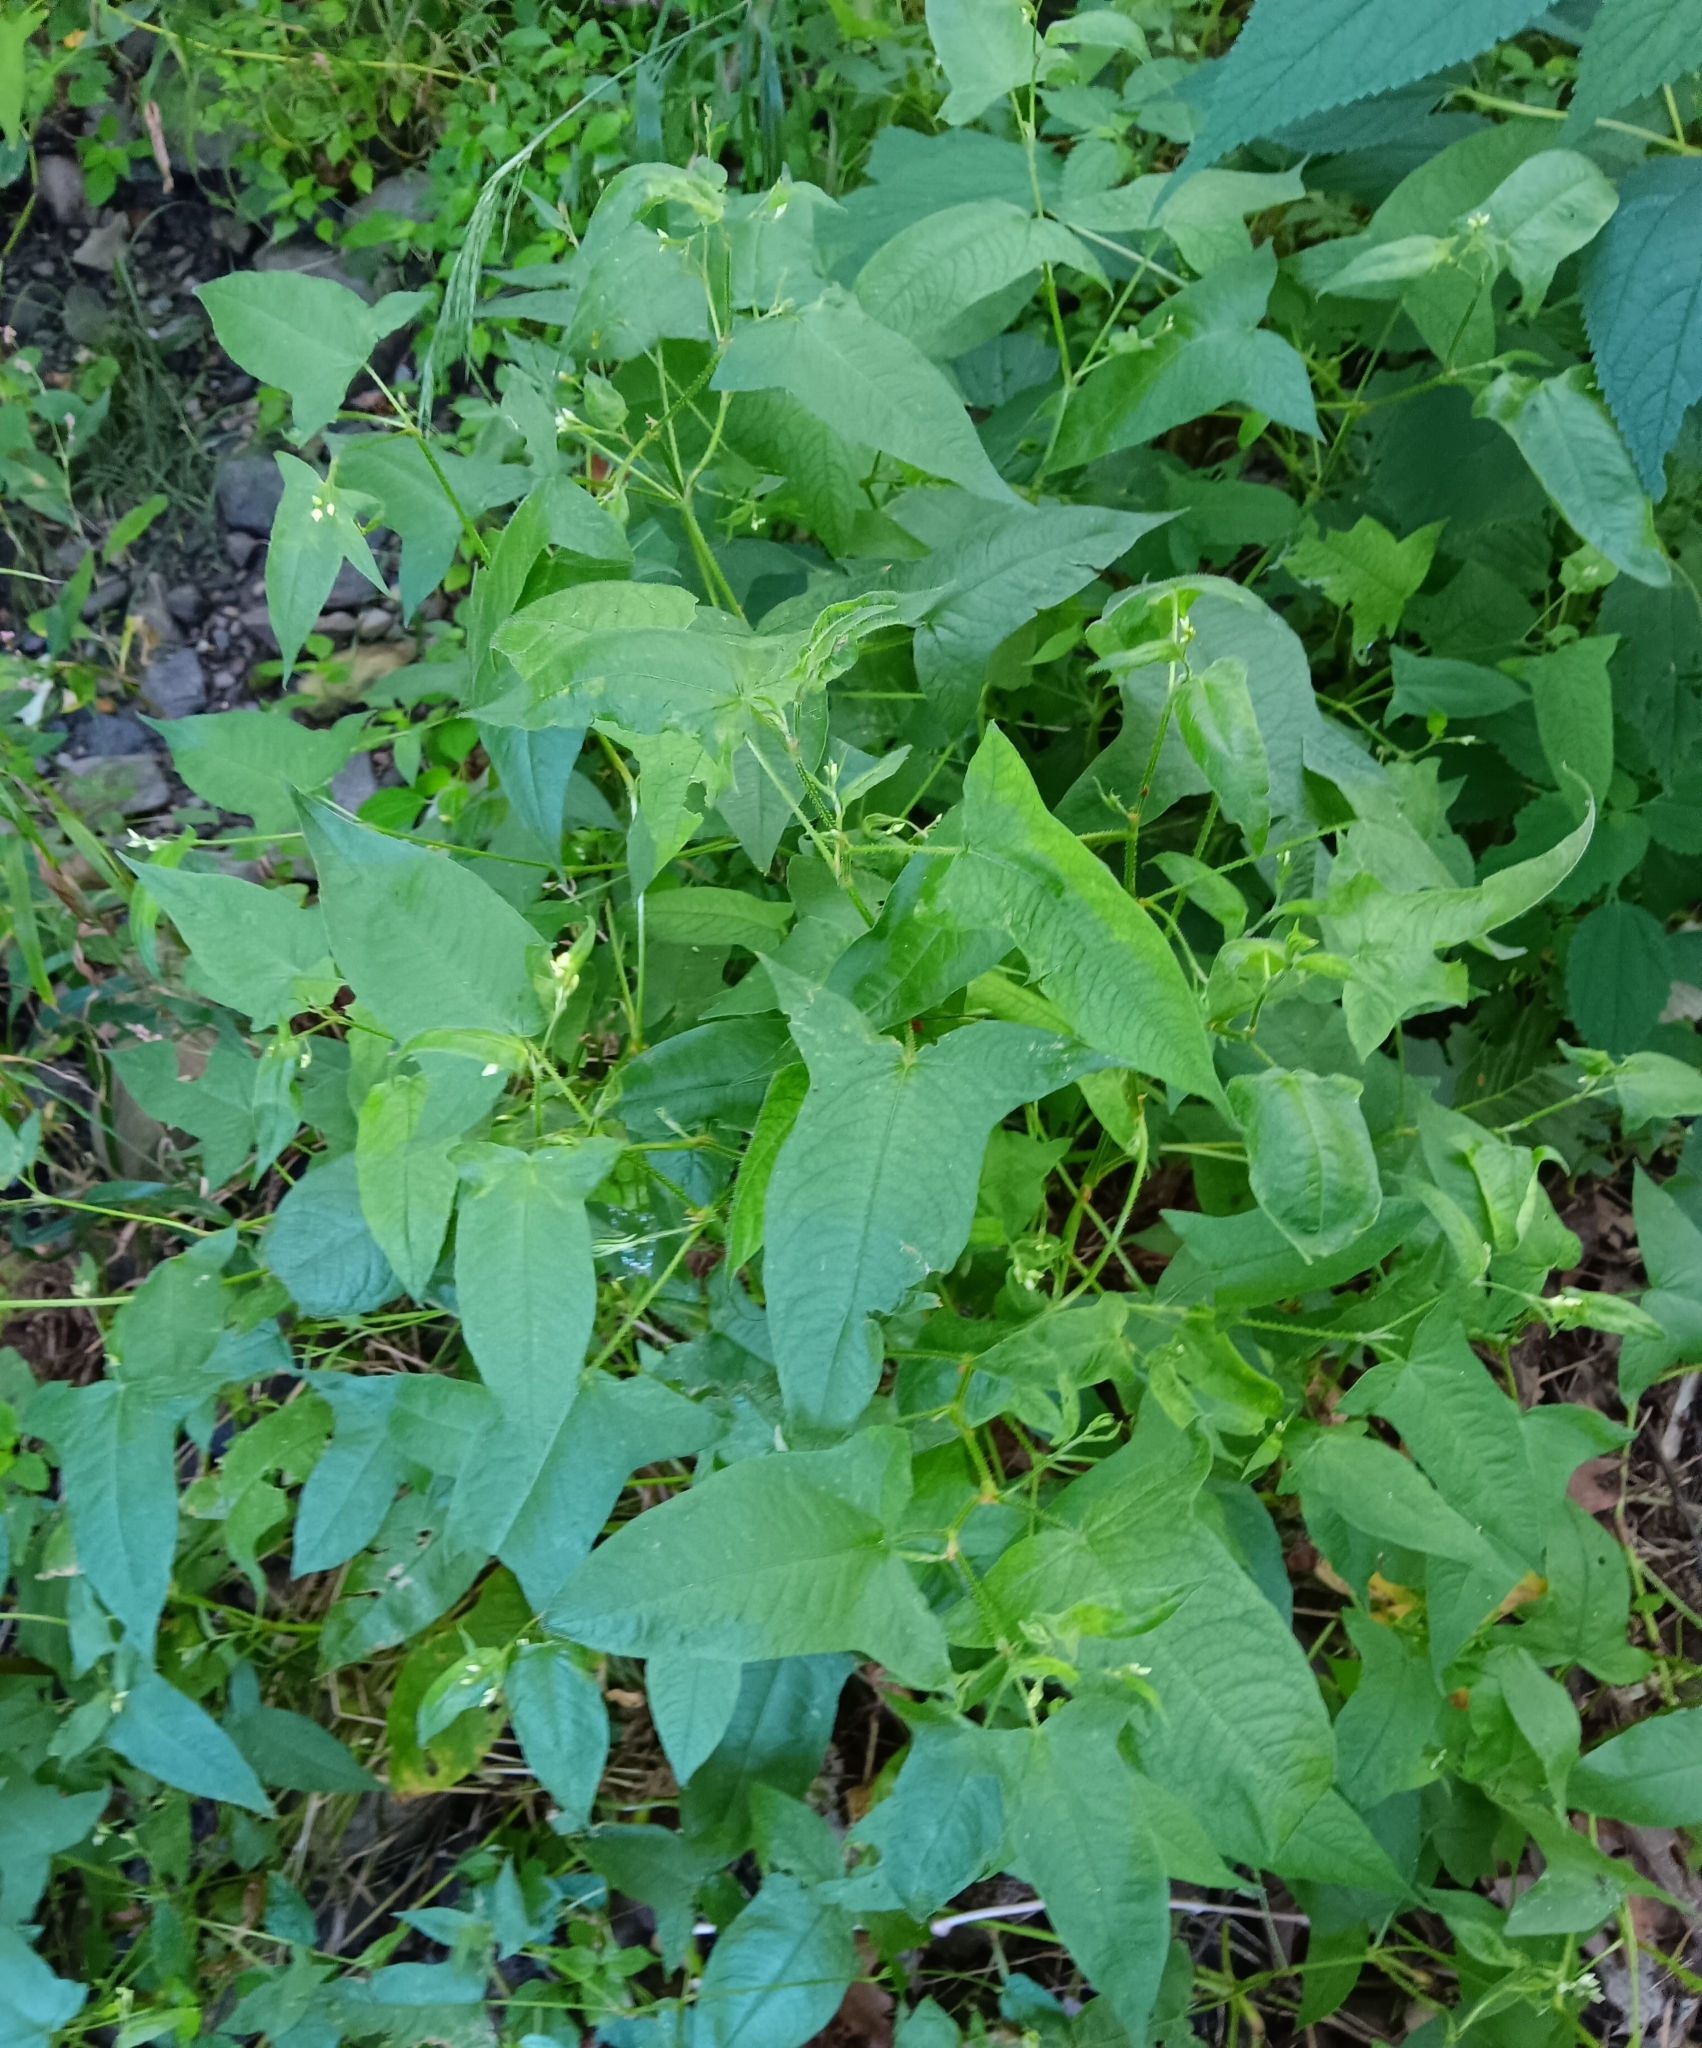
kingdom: Plantae
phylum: Tracheophyta
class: Magnoliopsida
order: Caryophyllales
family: Polygonaceae
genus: Persicaria
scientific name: Persicaria arifolia
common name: Halberd-leaved tear-thumb
